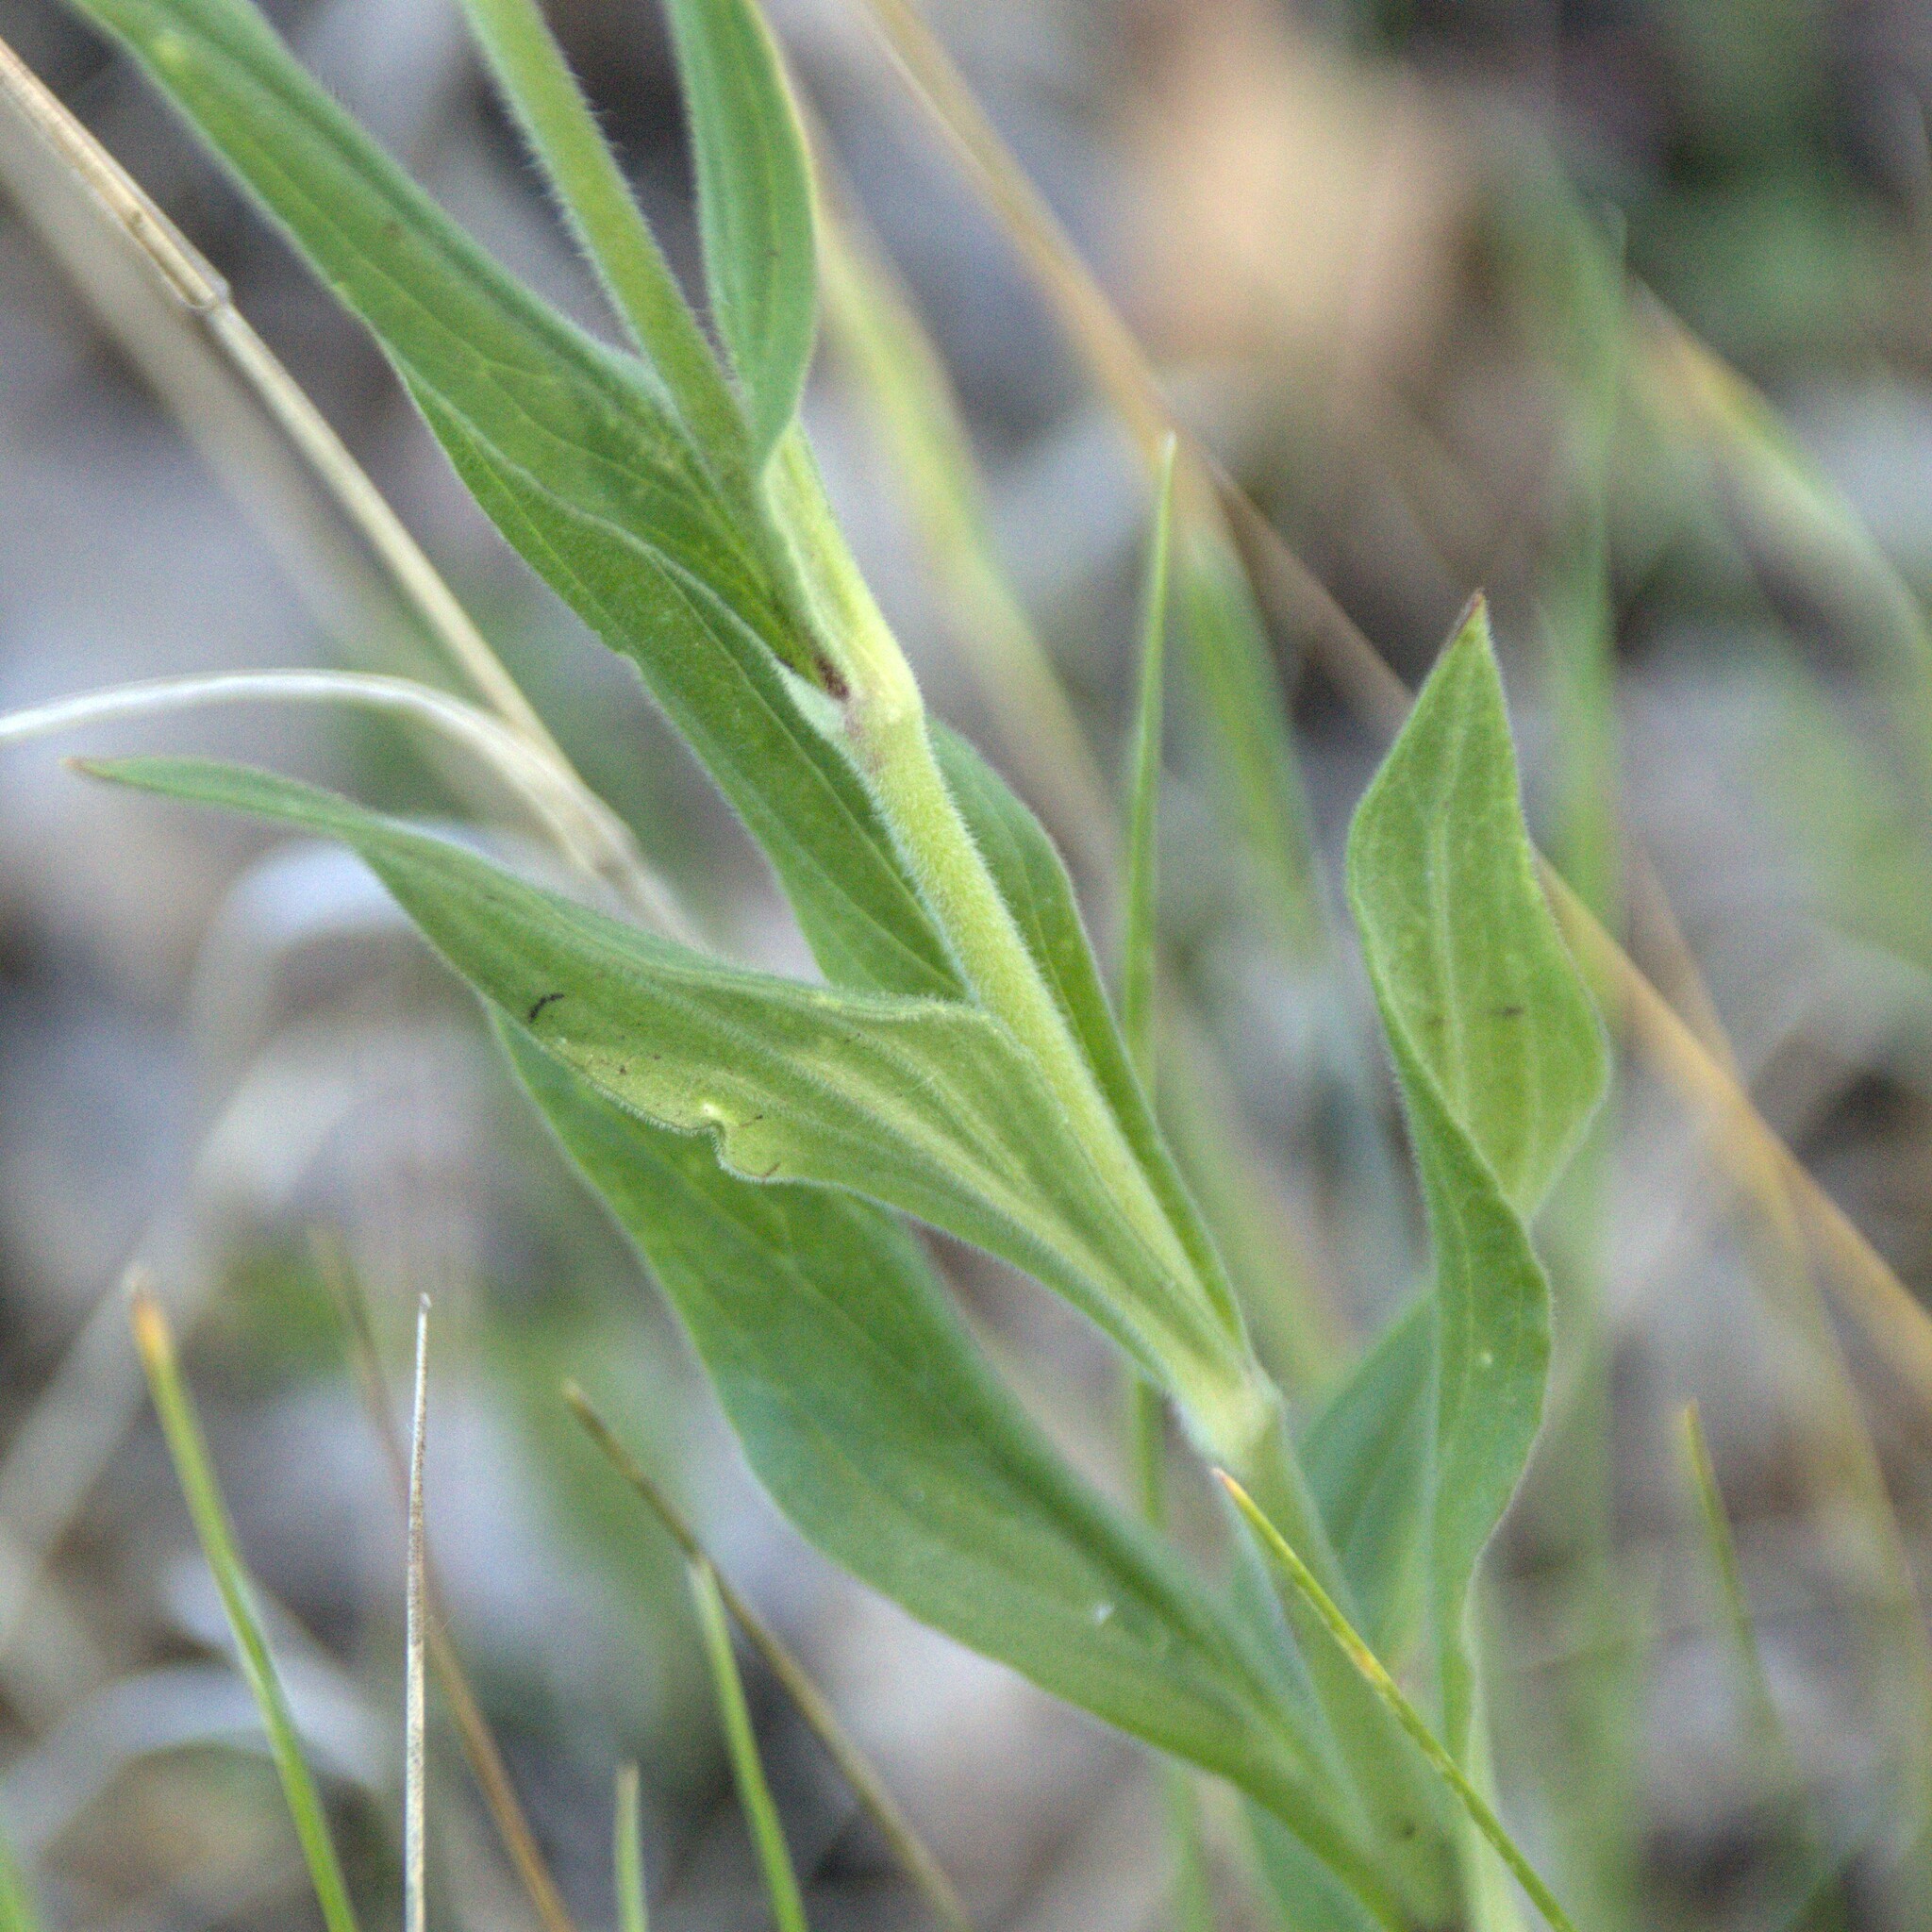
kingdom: Plantae
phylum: Tracheophyta
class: Magnoliopsida
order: Caryophyllales
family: Caryophyllaceae
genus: Silene
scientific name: Silene latifolia
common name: White campion
